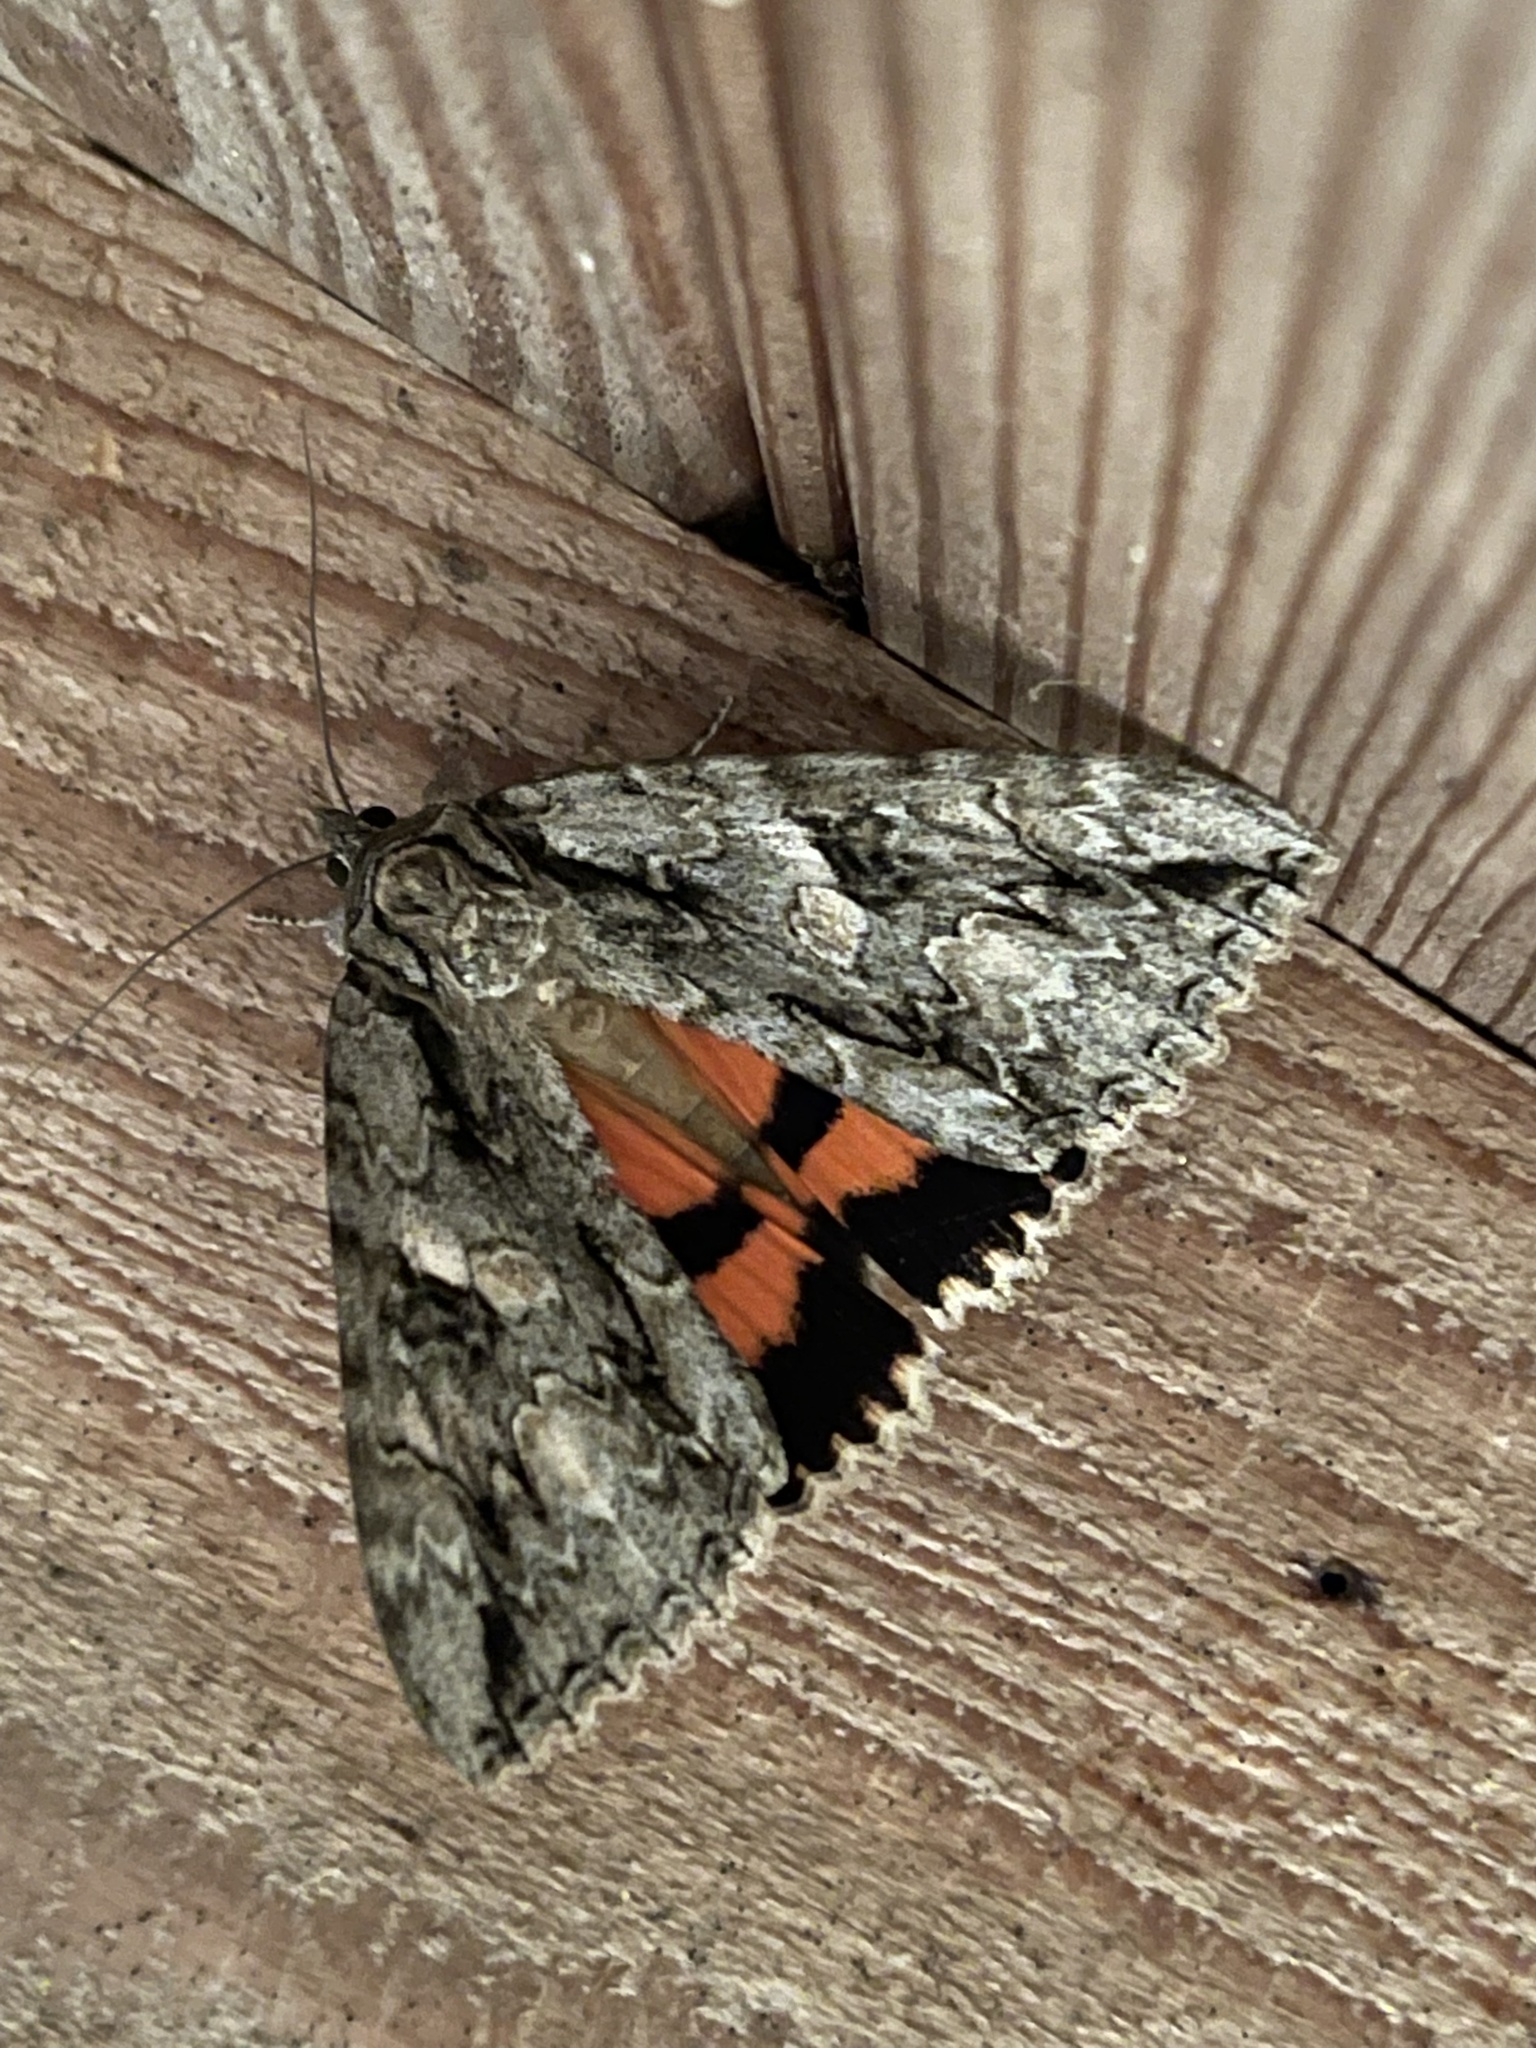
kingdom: Animalia
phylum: Arthropoda
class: Insecta
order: Lepidoptera
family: Erebidae
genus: Catocala
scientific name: Catocala parta
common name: Mother underwing
